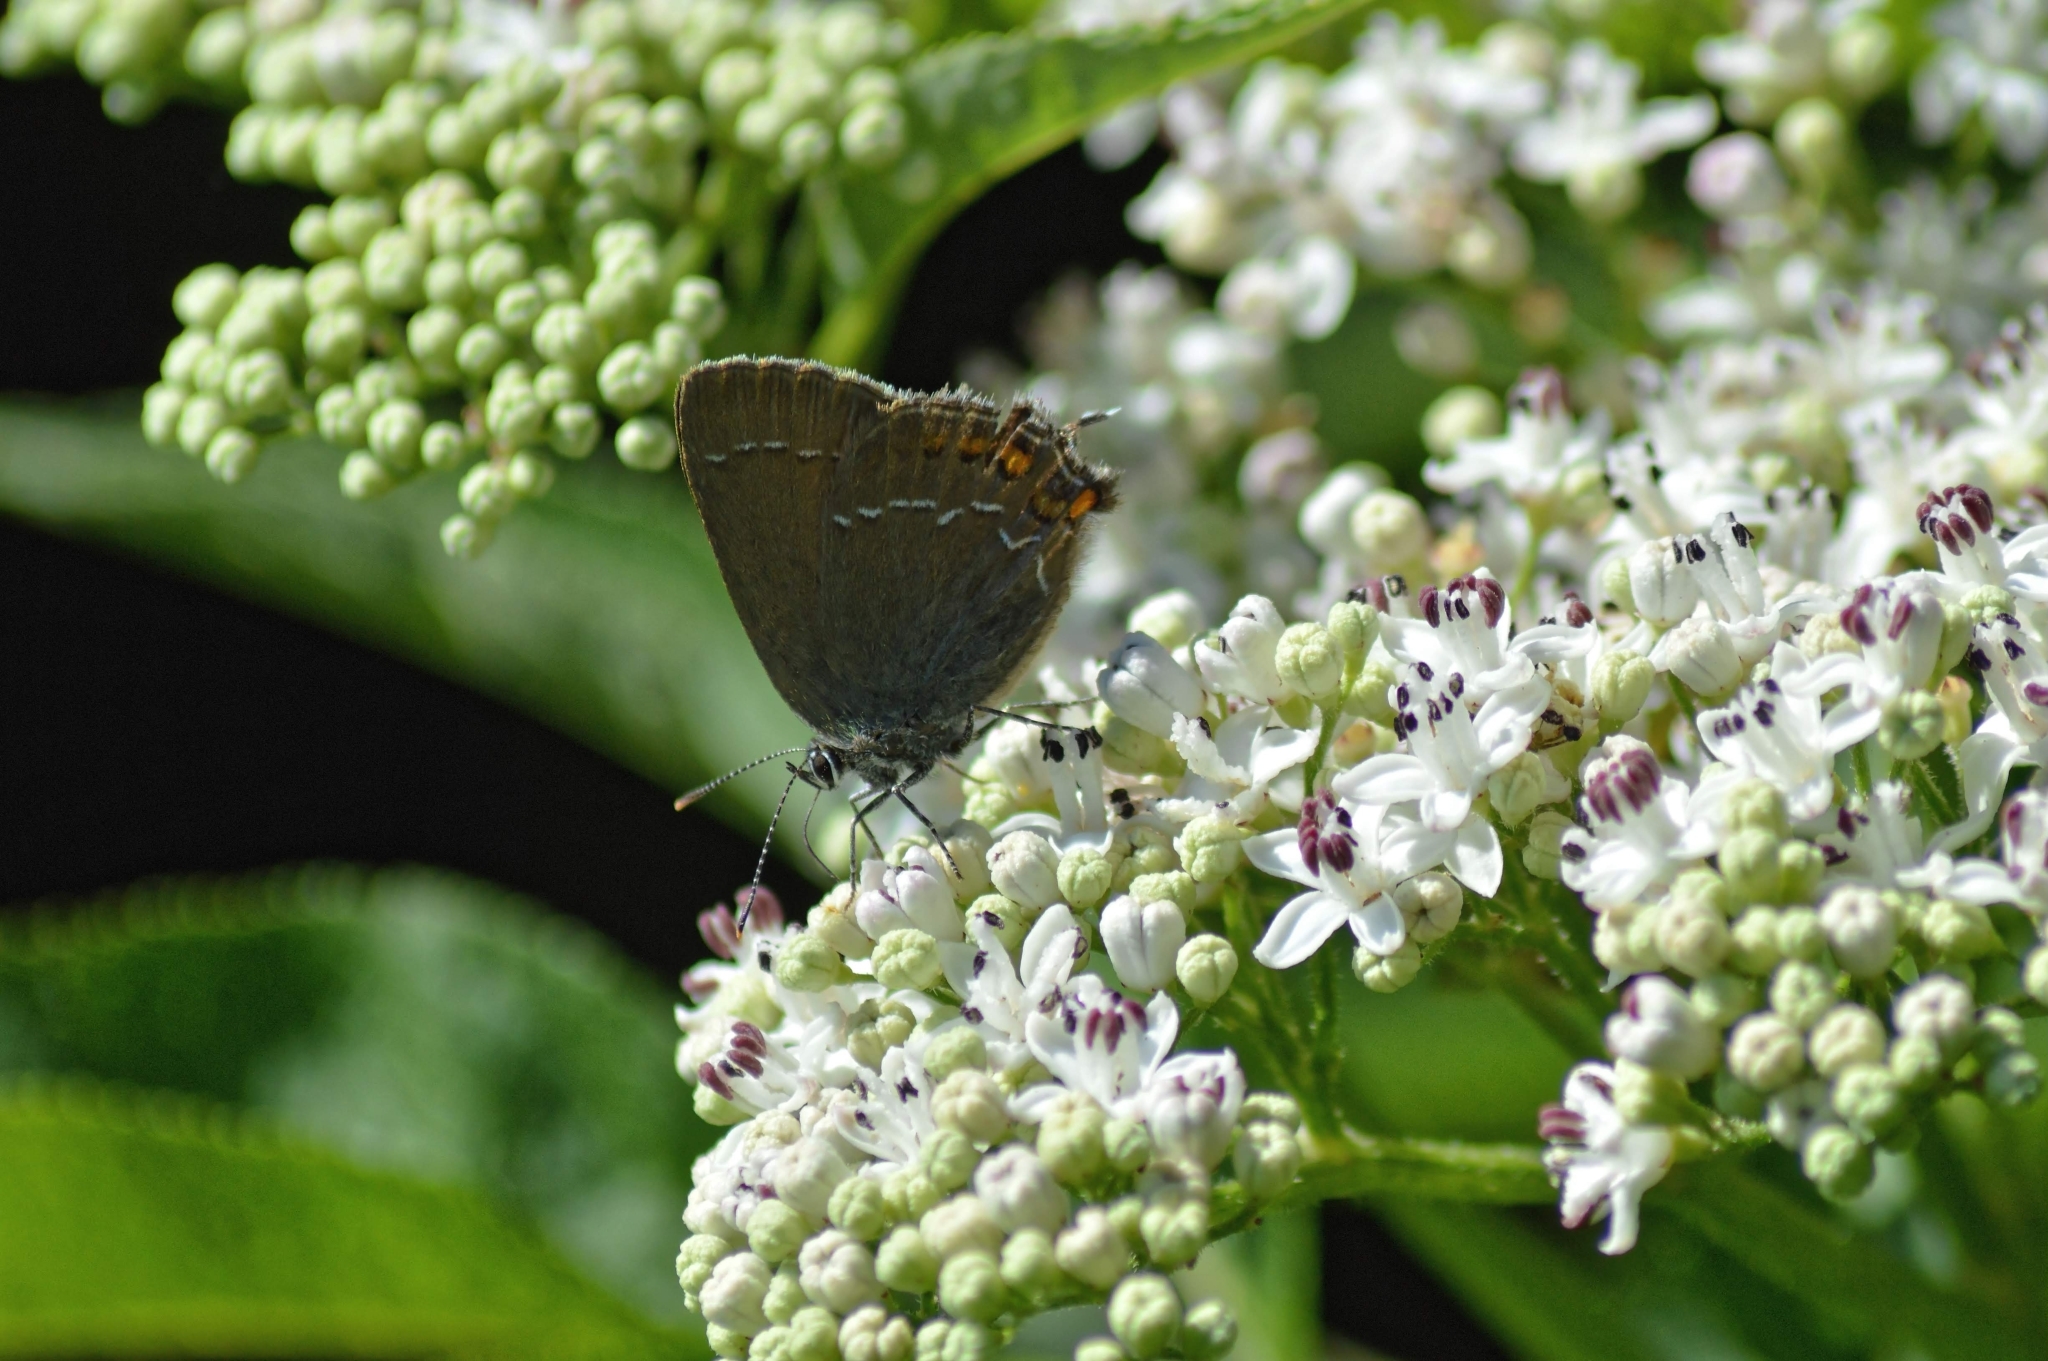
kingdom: Animalia
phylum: Arthropoda
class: Insecta
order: Lepidoptera
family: Lycaenidae
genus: Nordmannia
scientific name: Nordmannia ilicis
